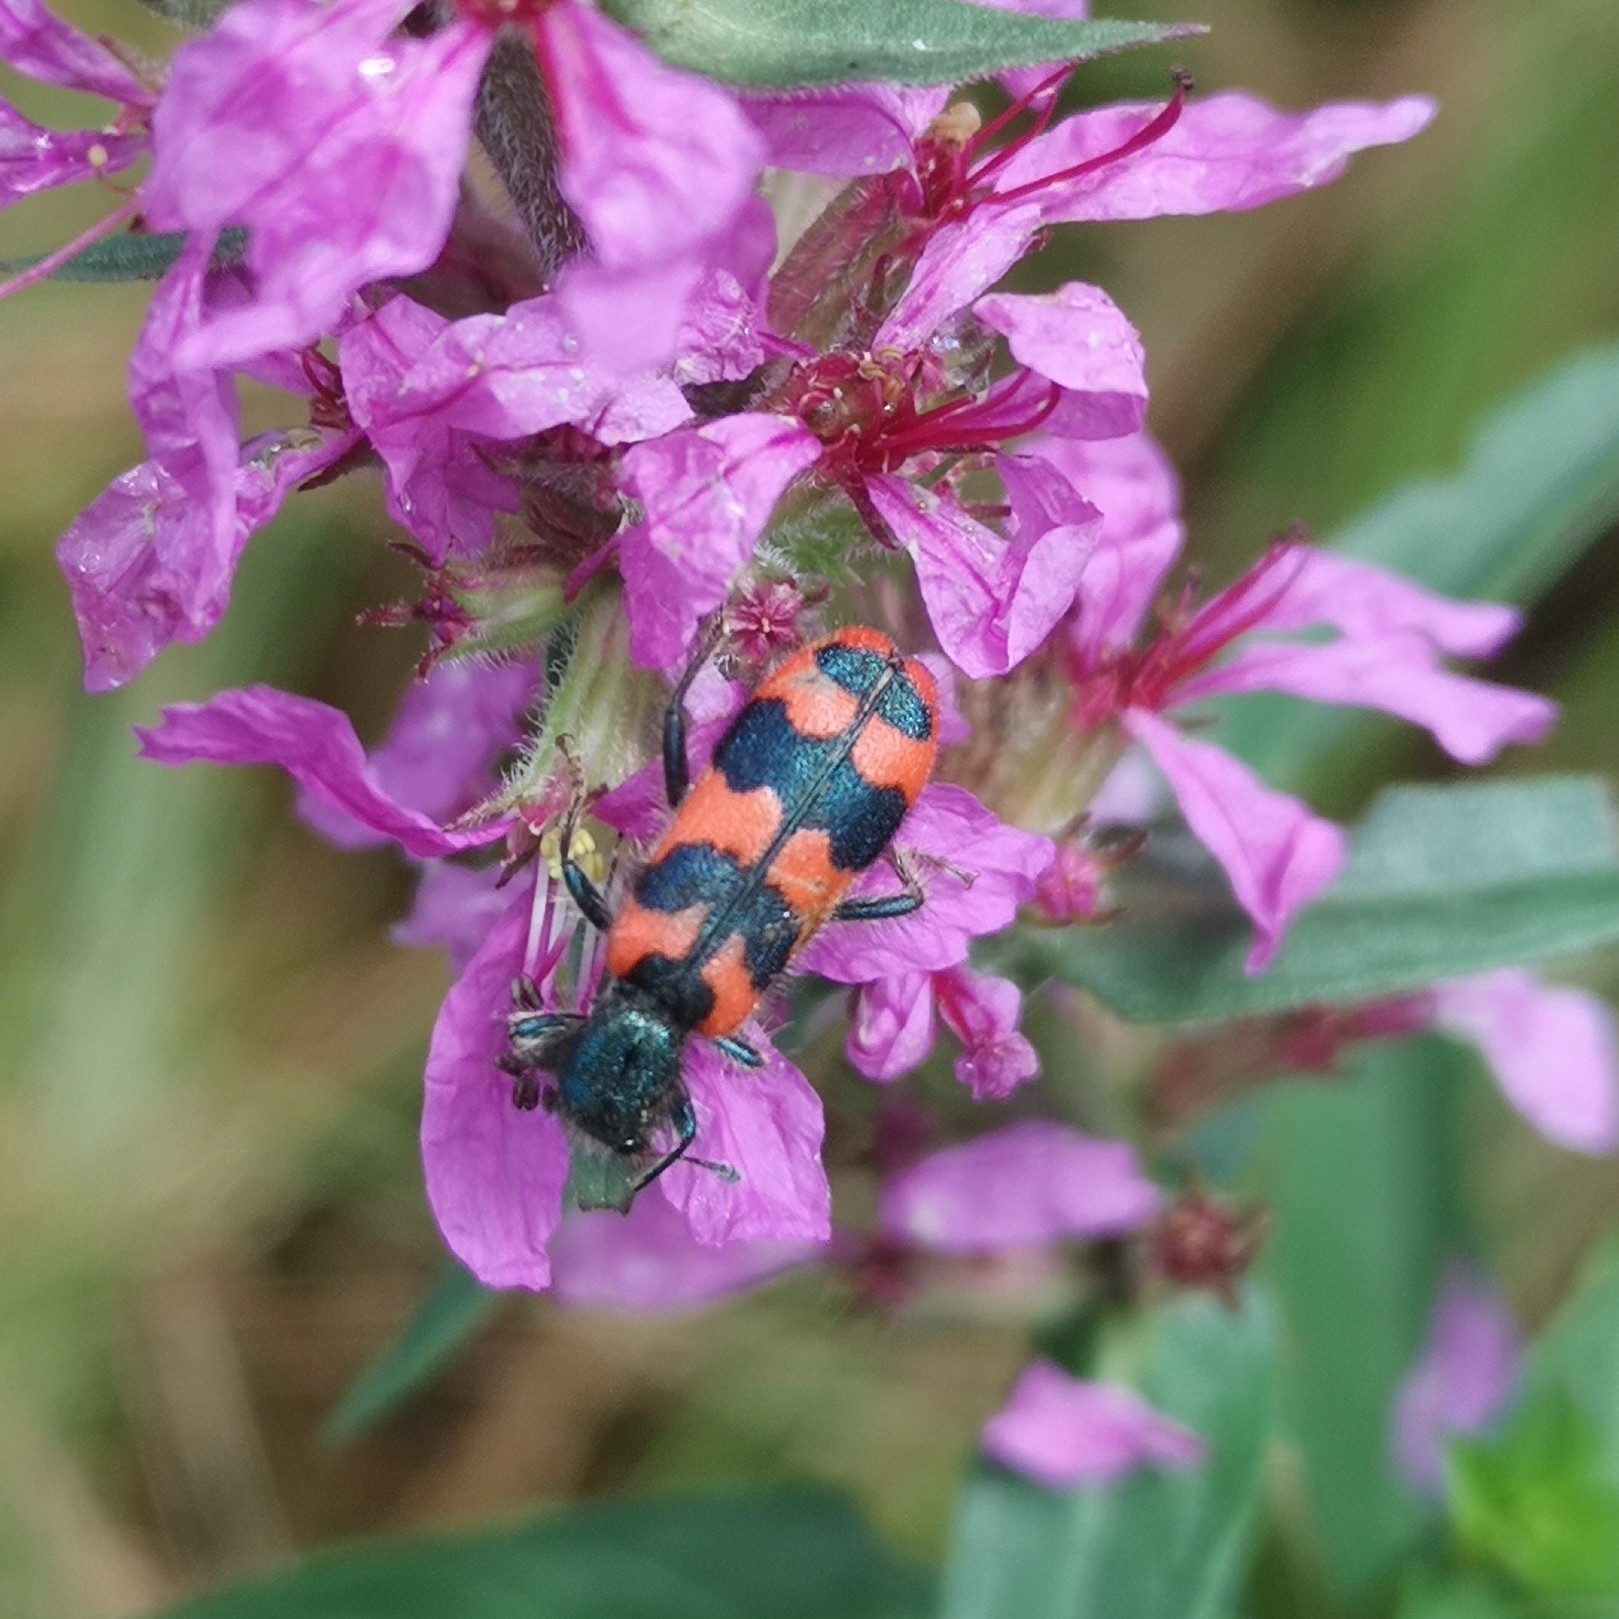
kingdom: Animalia
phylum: Arthropoda
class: Insecta
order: Coleoptera
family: Cleridae
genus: Trichodes
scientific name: Trichodes alvearius
